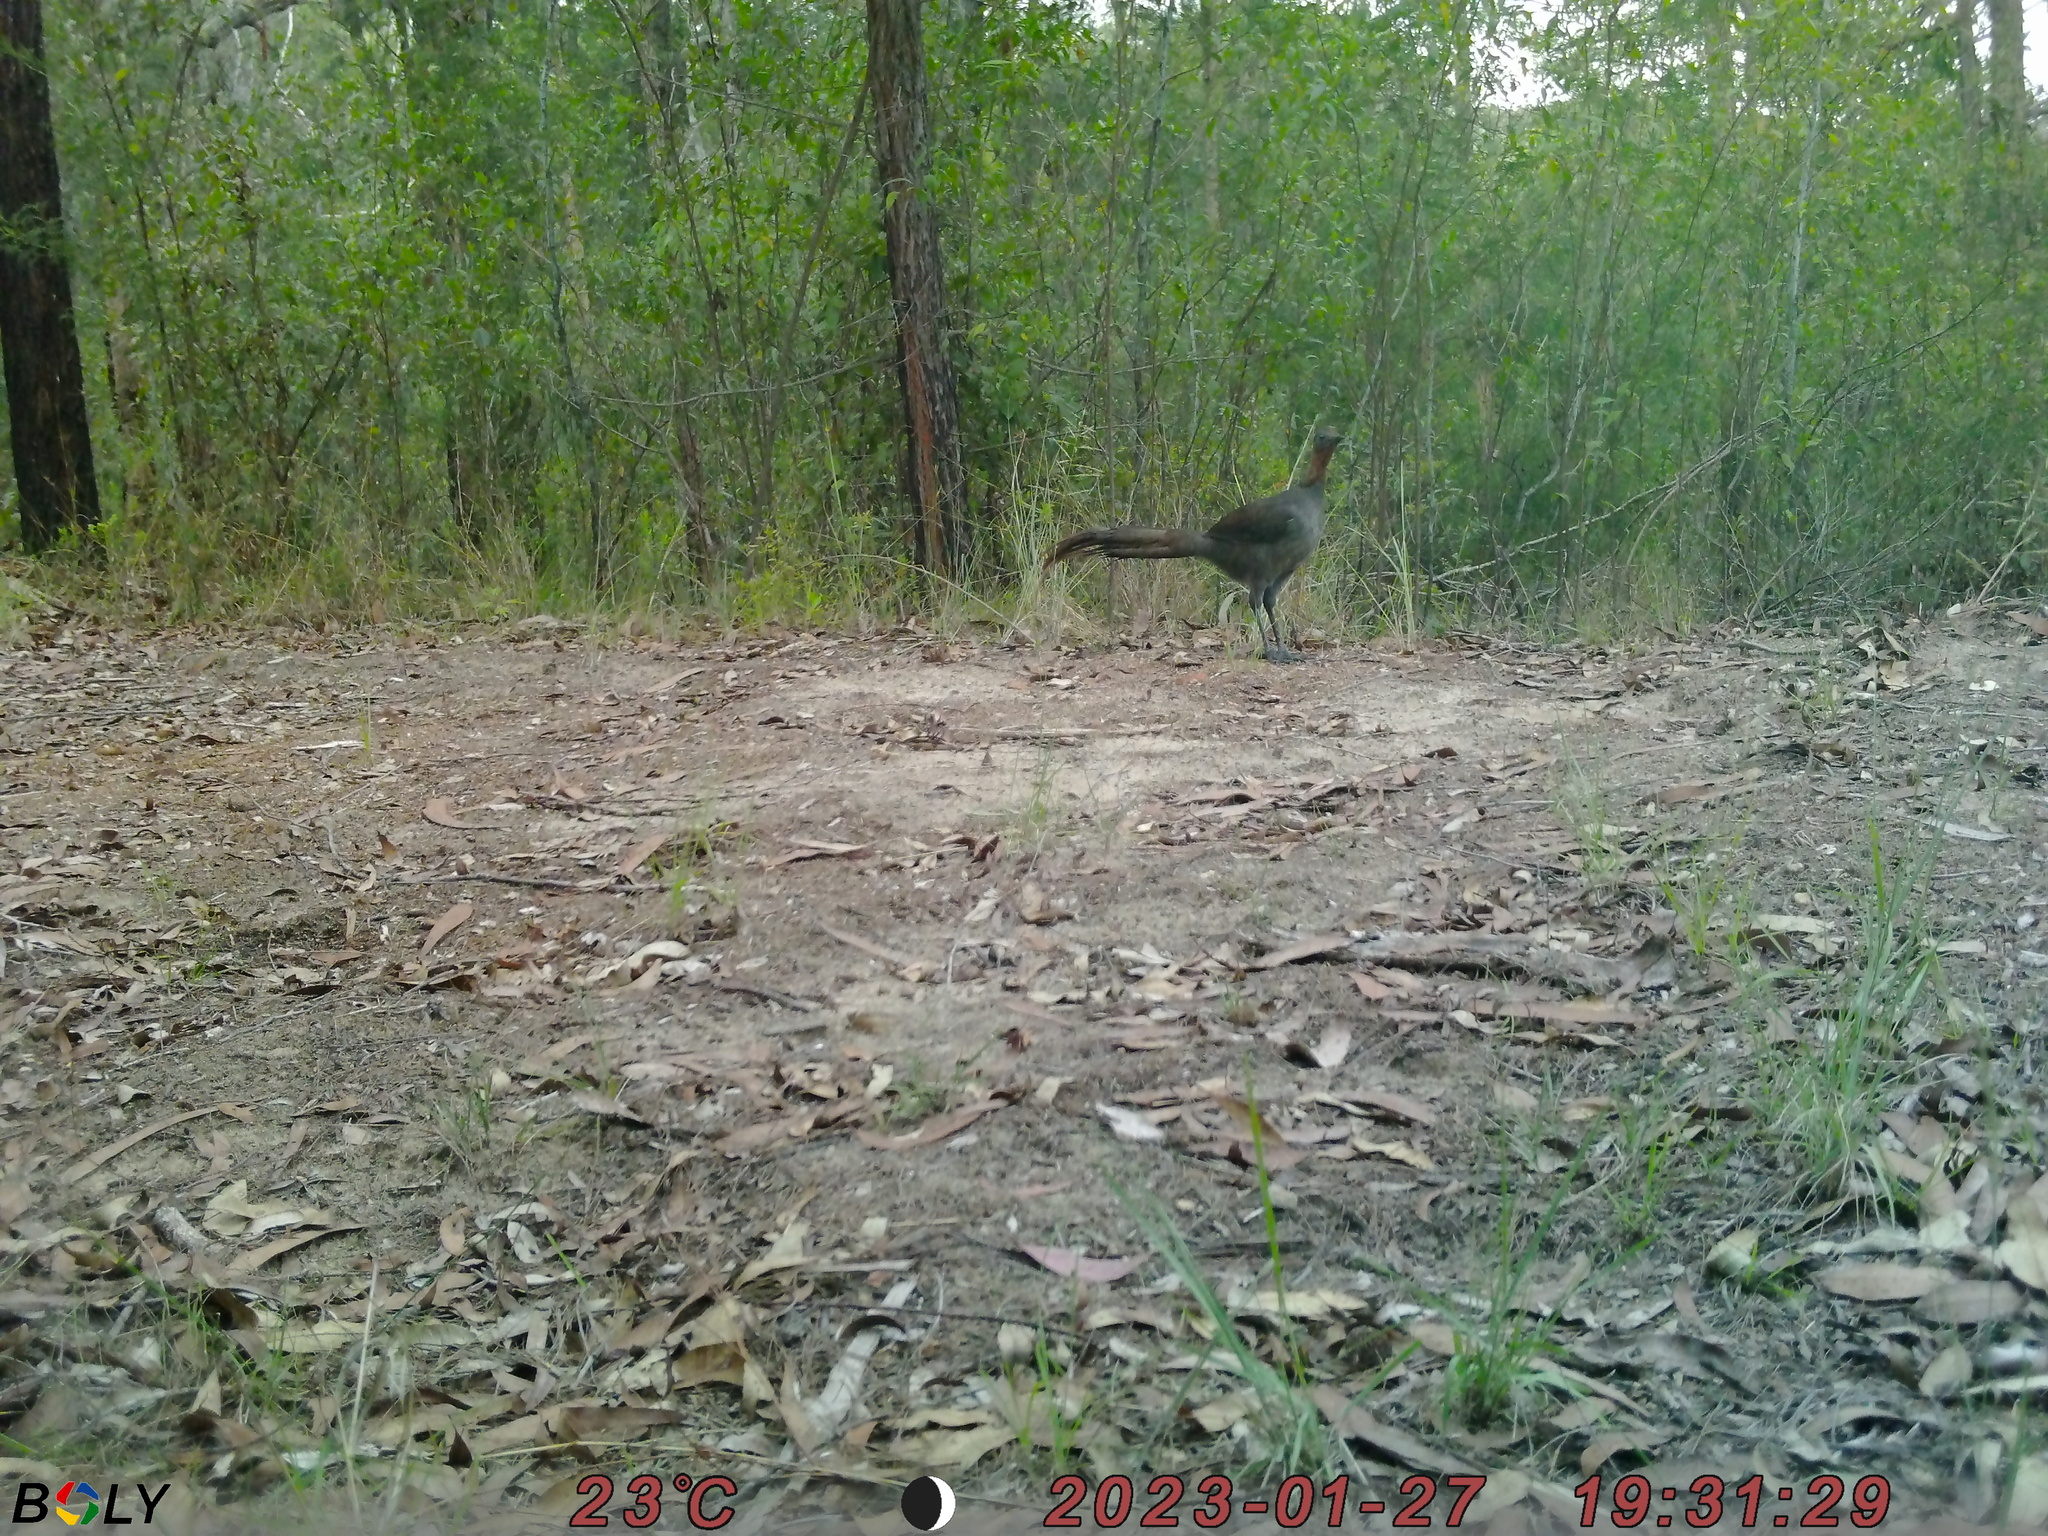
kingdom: Animalia
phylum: Chordata
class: Aves
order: Passeriformes
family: Menuridae
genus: Menura
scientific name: Menura novaehollandiae
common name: Superb lyrebird
